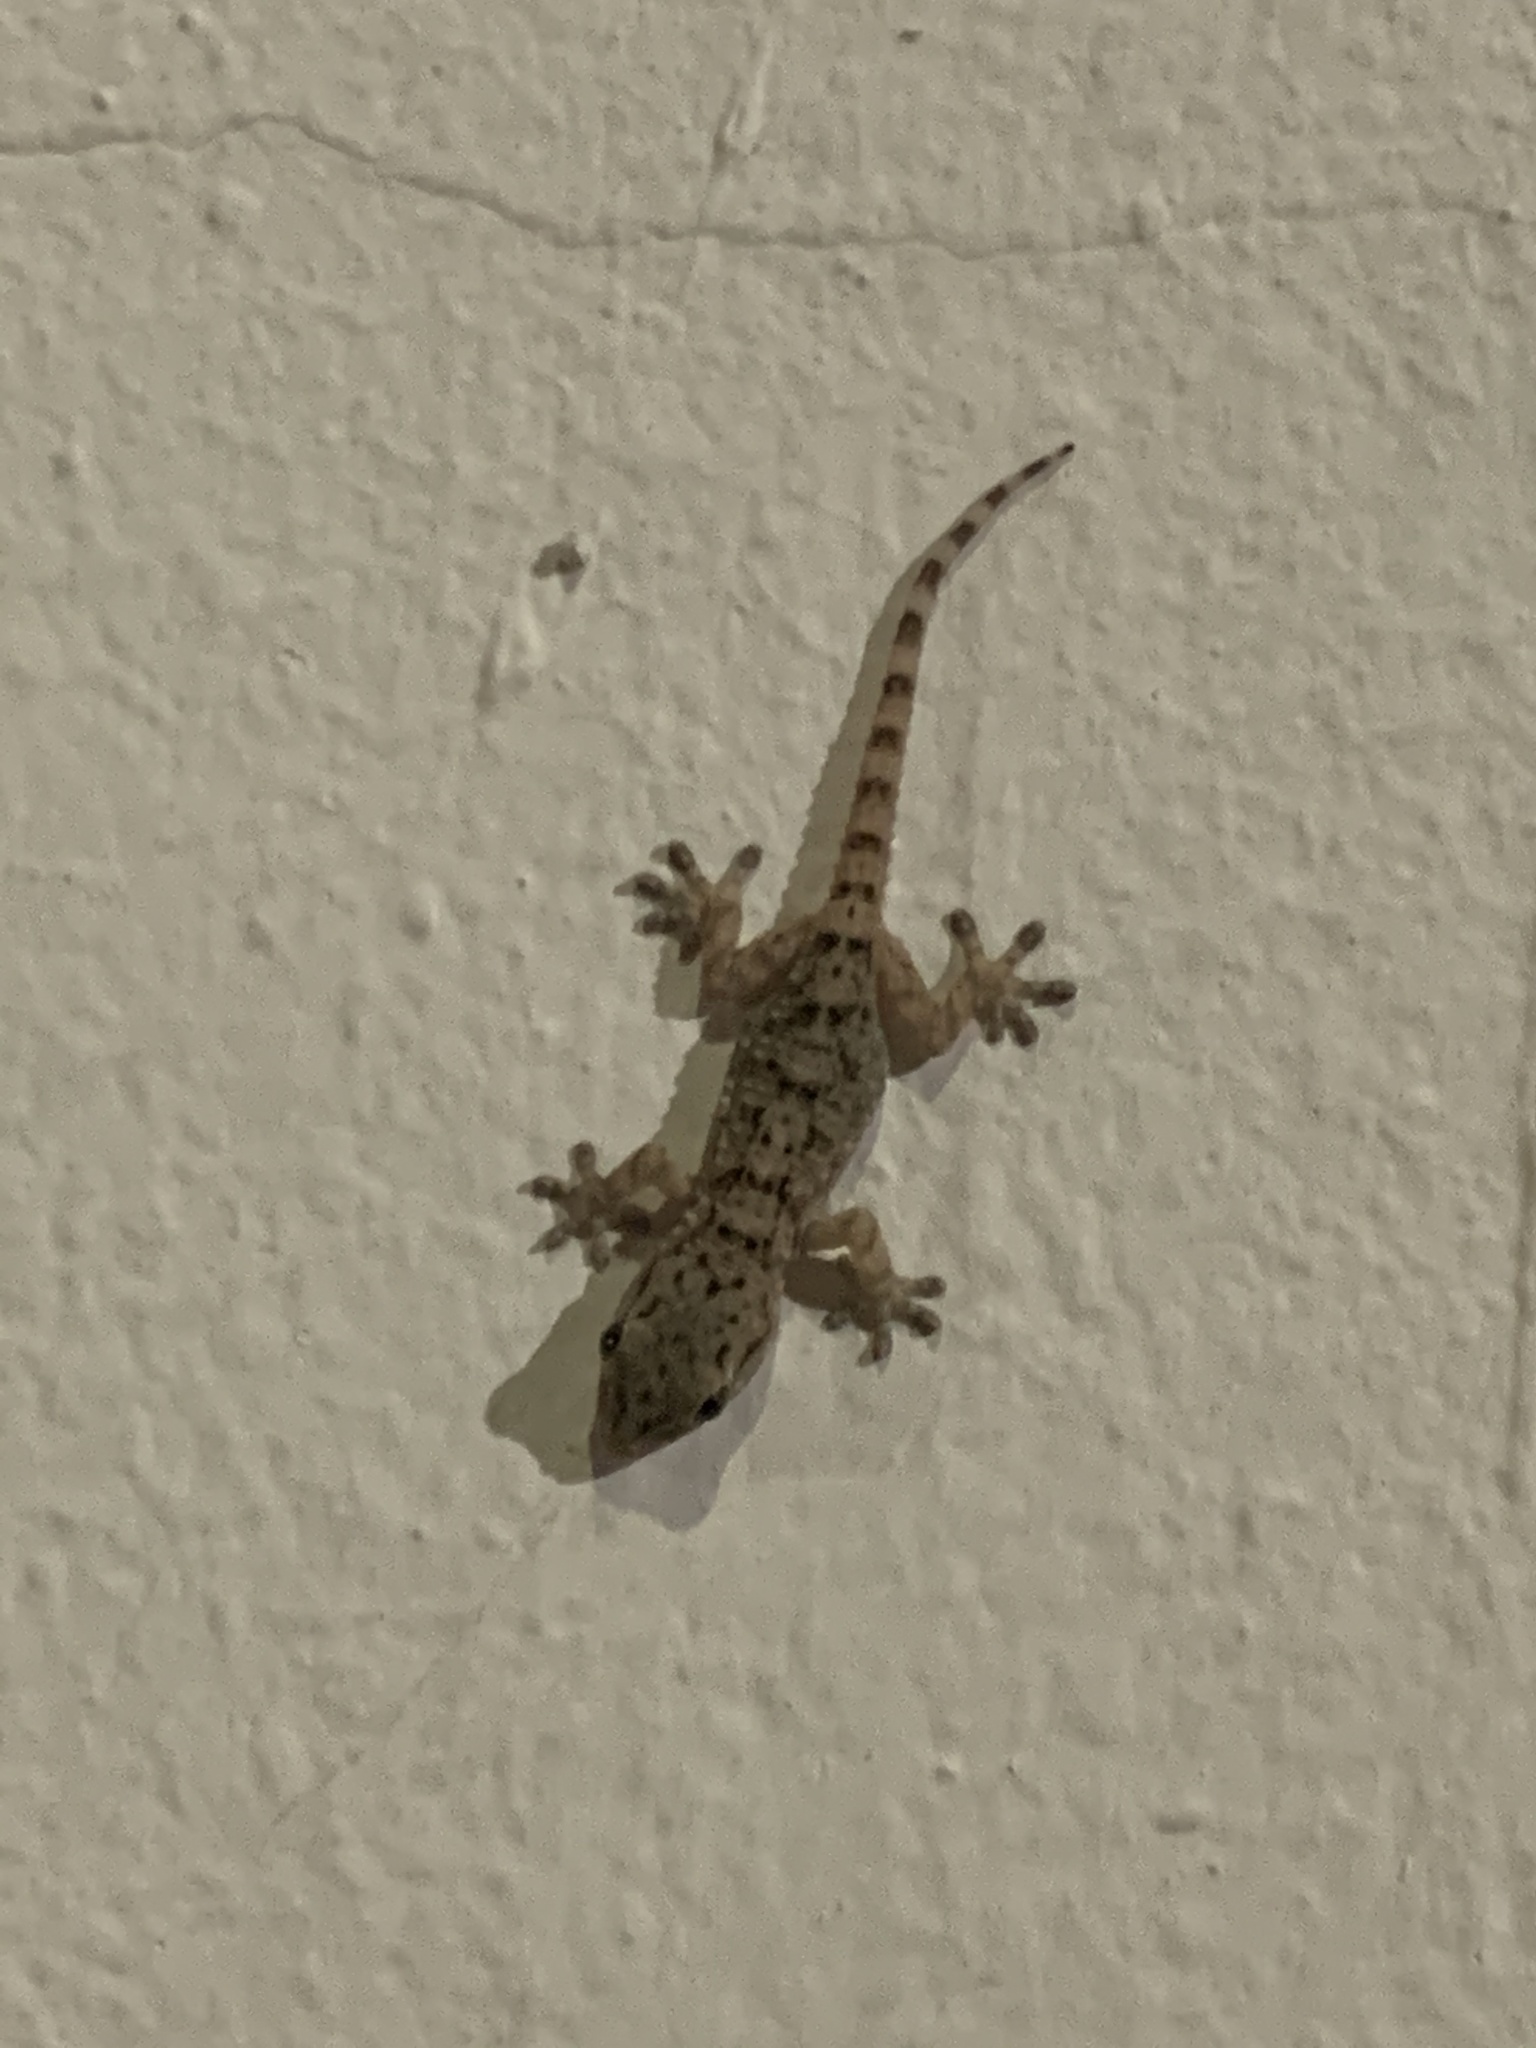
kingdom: Animalia
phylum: Chordata
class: Squamata
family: Phyllodactylidae
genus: Tarentola
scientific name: Tarentola mauritanica
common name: Moorish gecko
